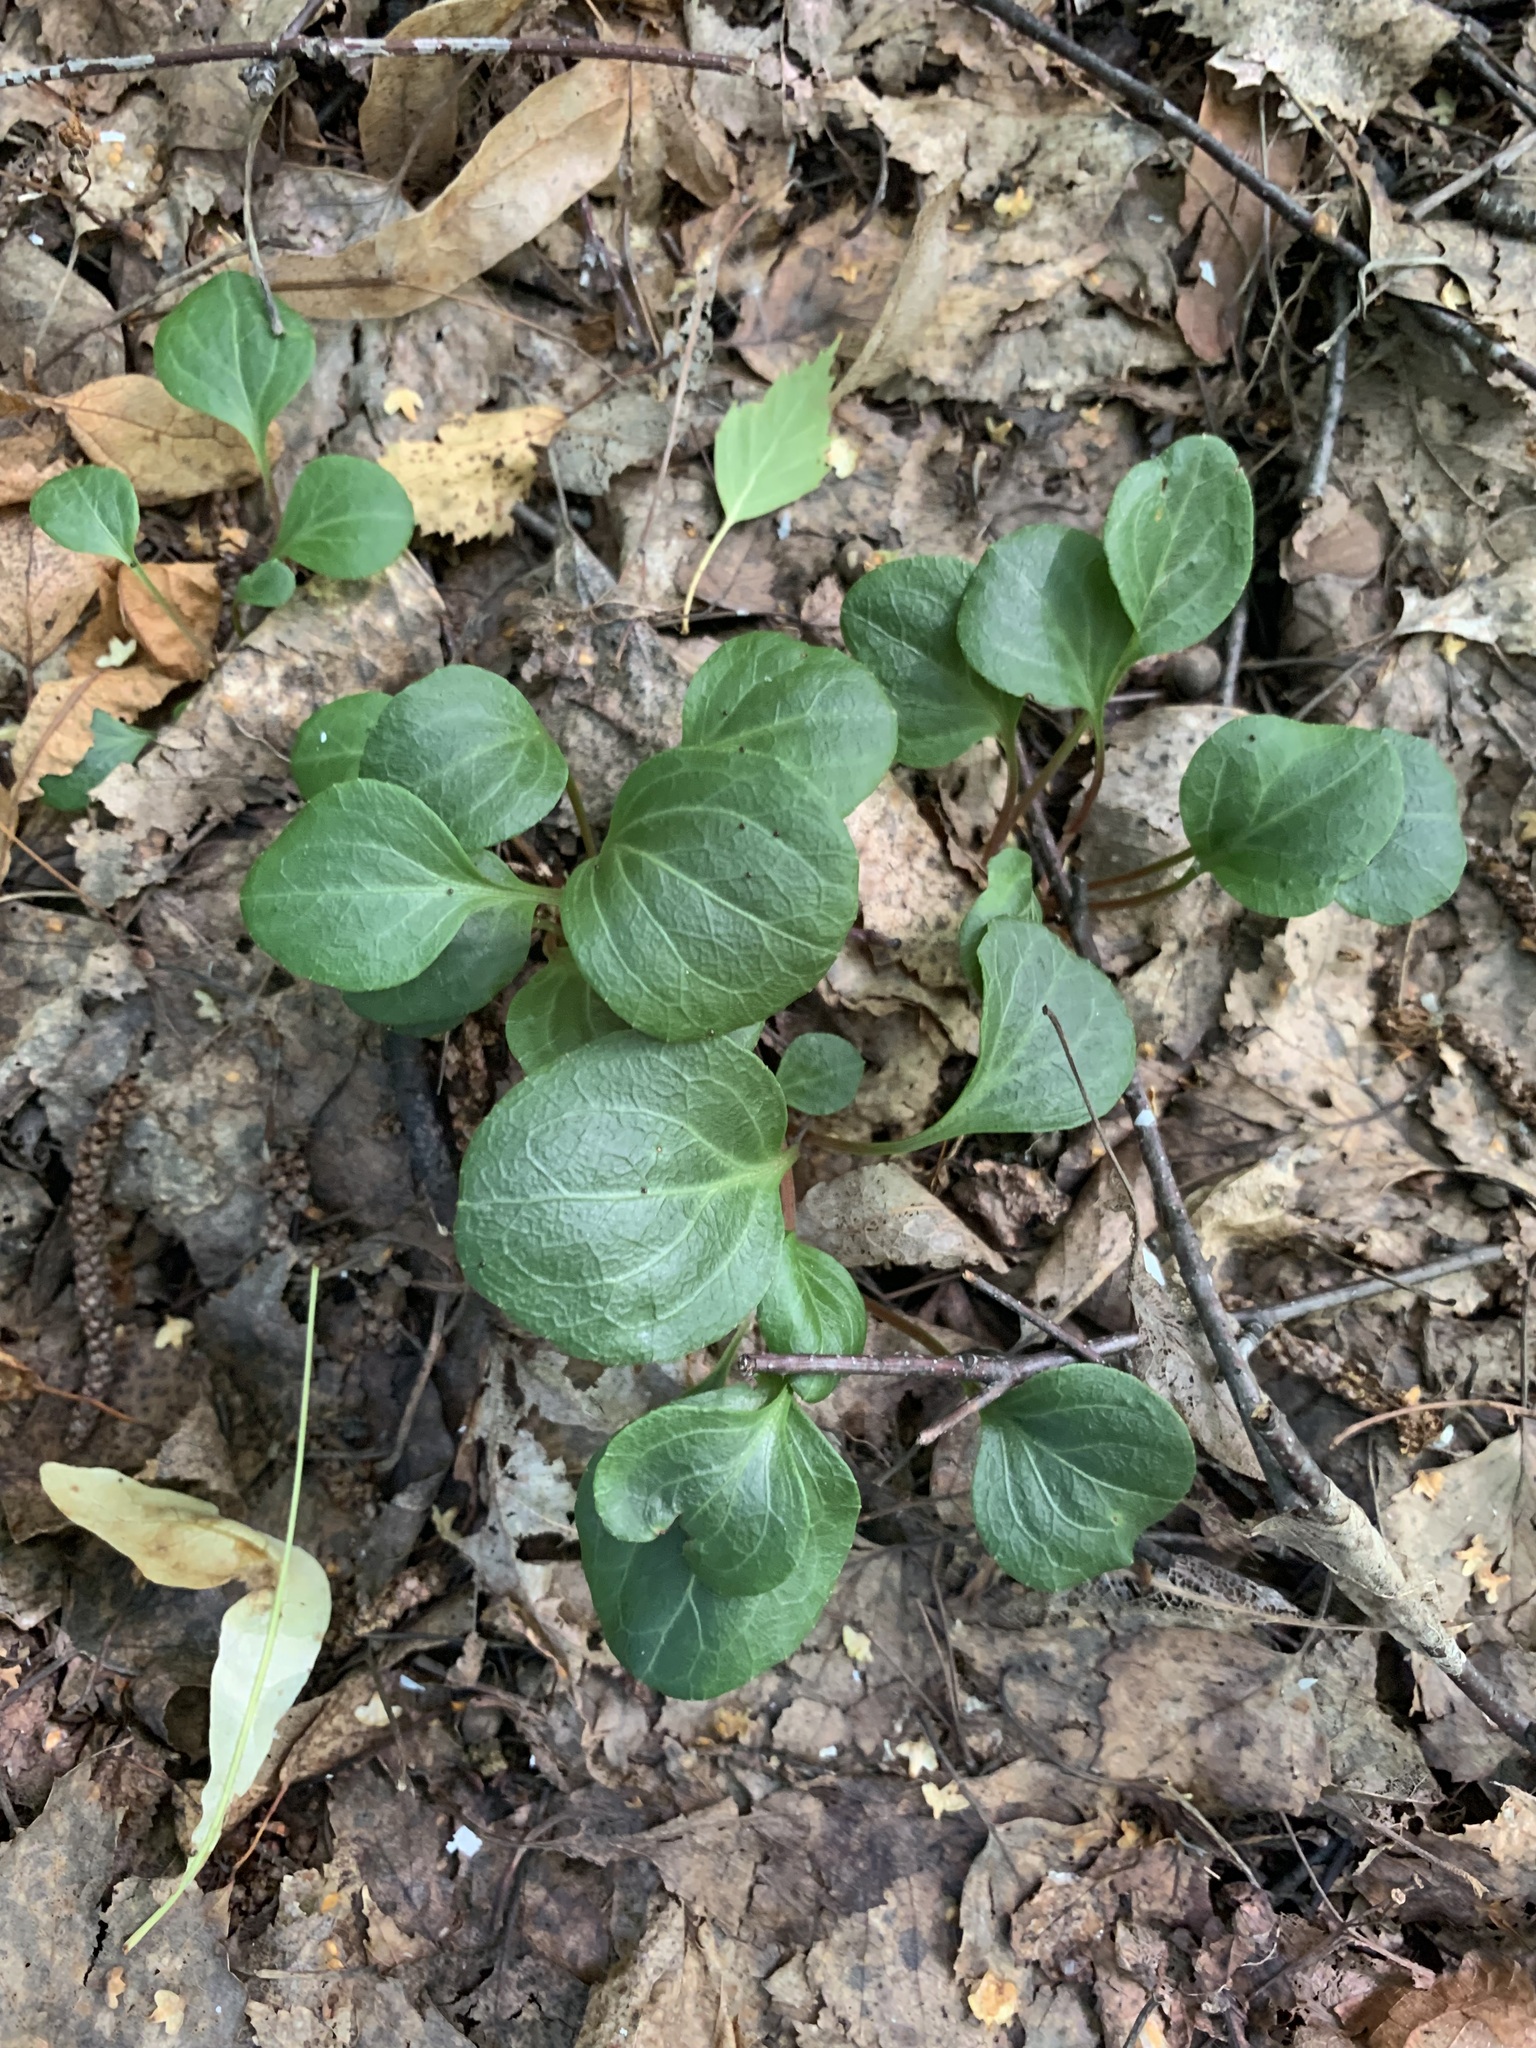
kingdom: Plantae
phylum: Tracheophyta
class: Magnoliopsida
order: Ericales
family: Ericaceae
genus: Pyrola
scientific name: Pyrola chlorantha
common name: Green wintergreen
